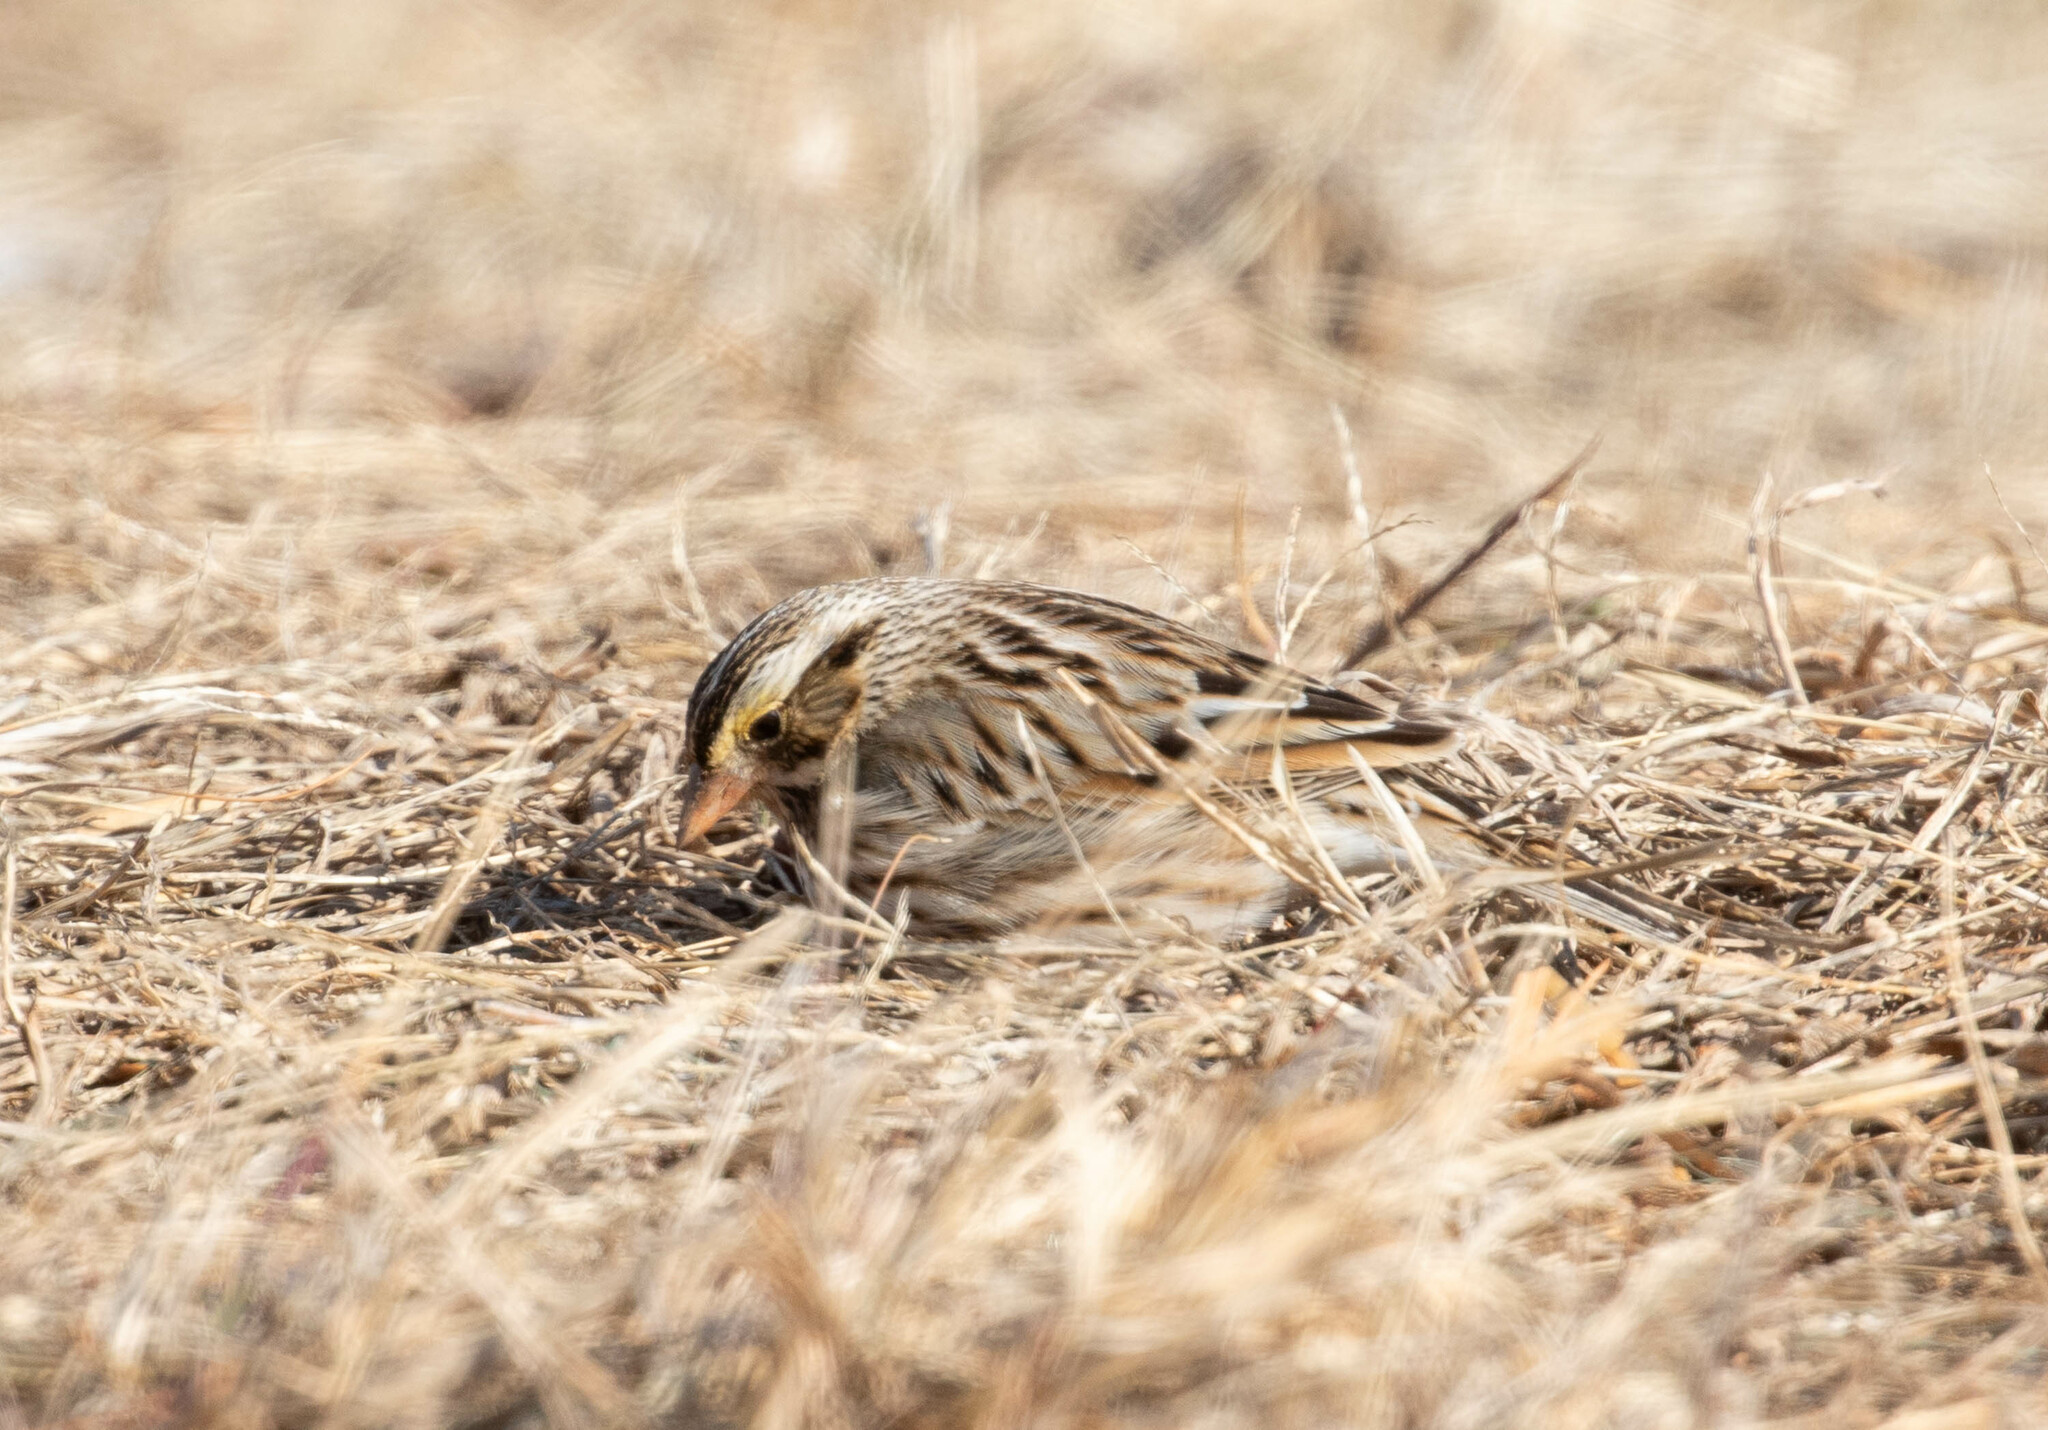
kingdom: Animalia
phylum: Chordata
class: Aves
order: Passeriformes
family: Passerellidae
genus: Passerculus
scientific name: Passerculus sandwichensis
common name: Savannah sparrow
